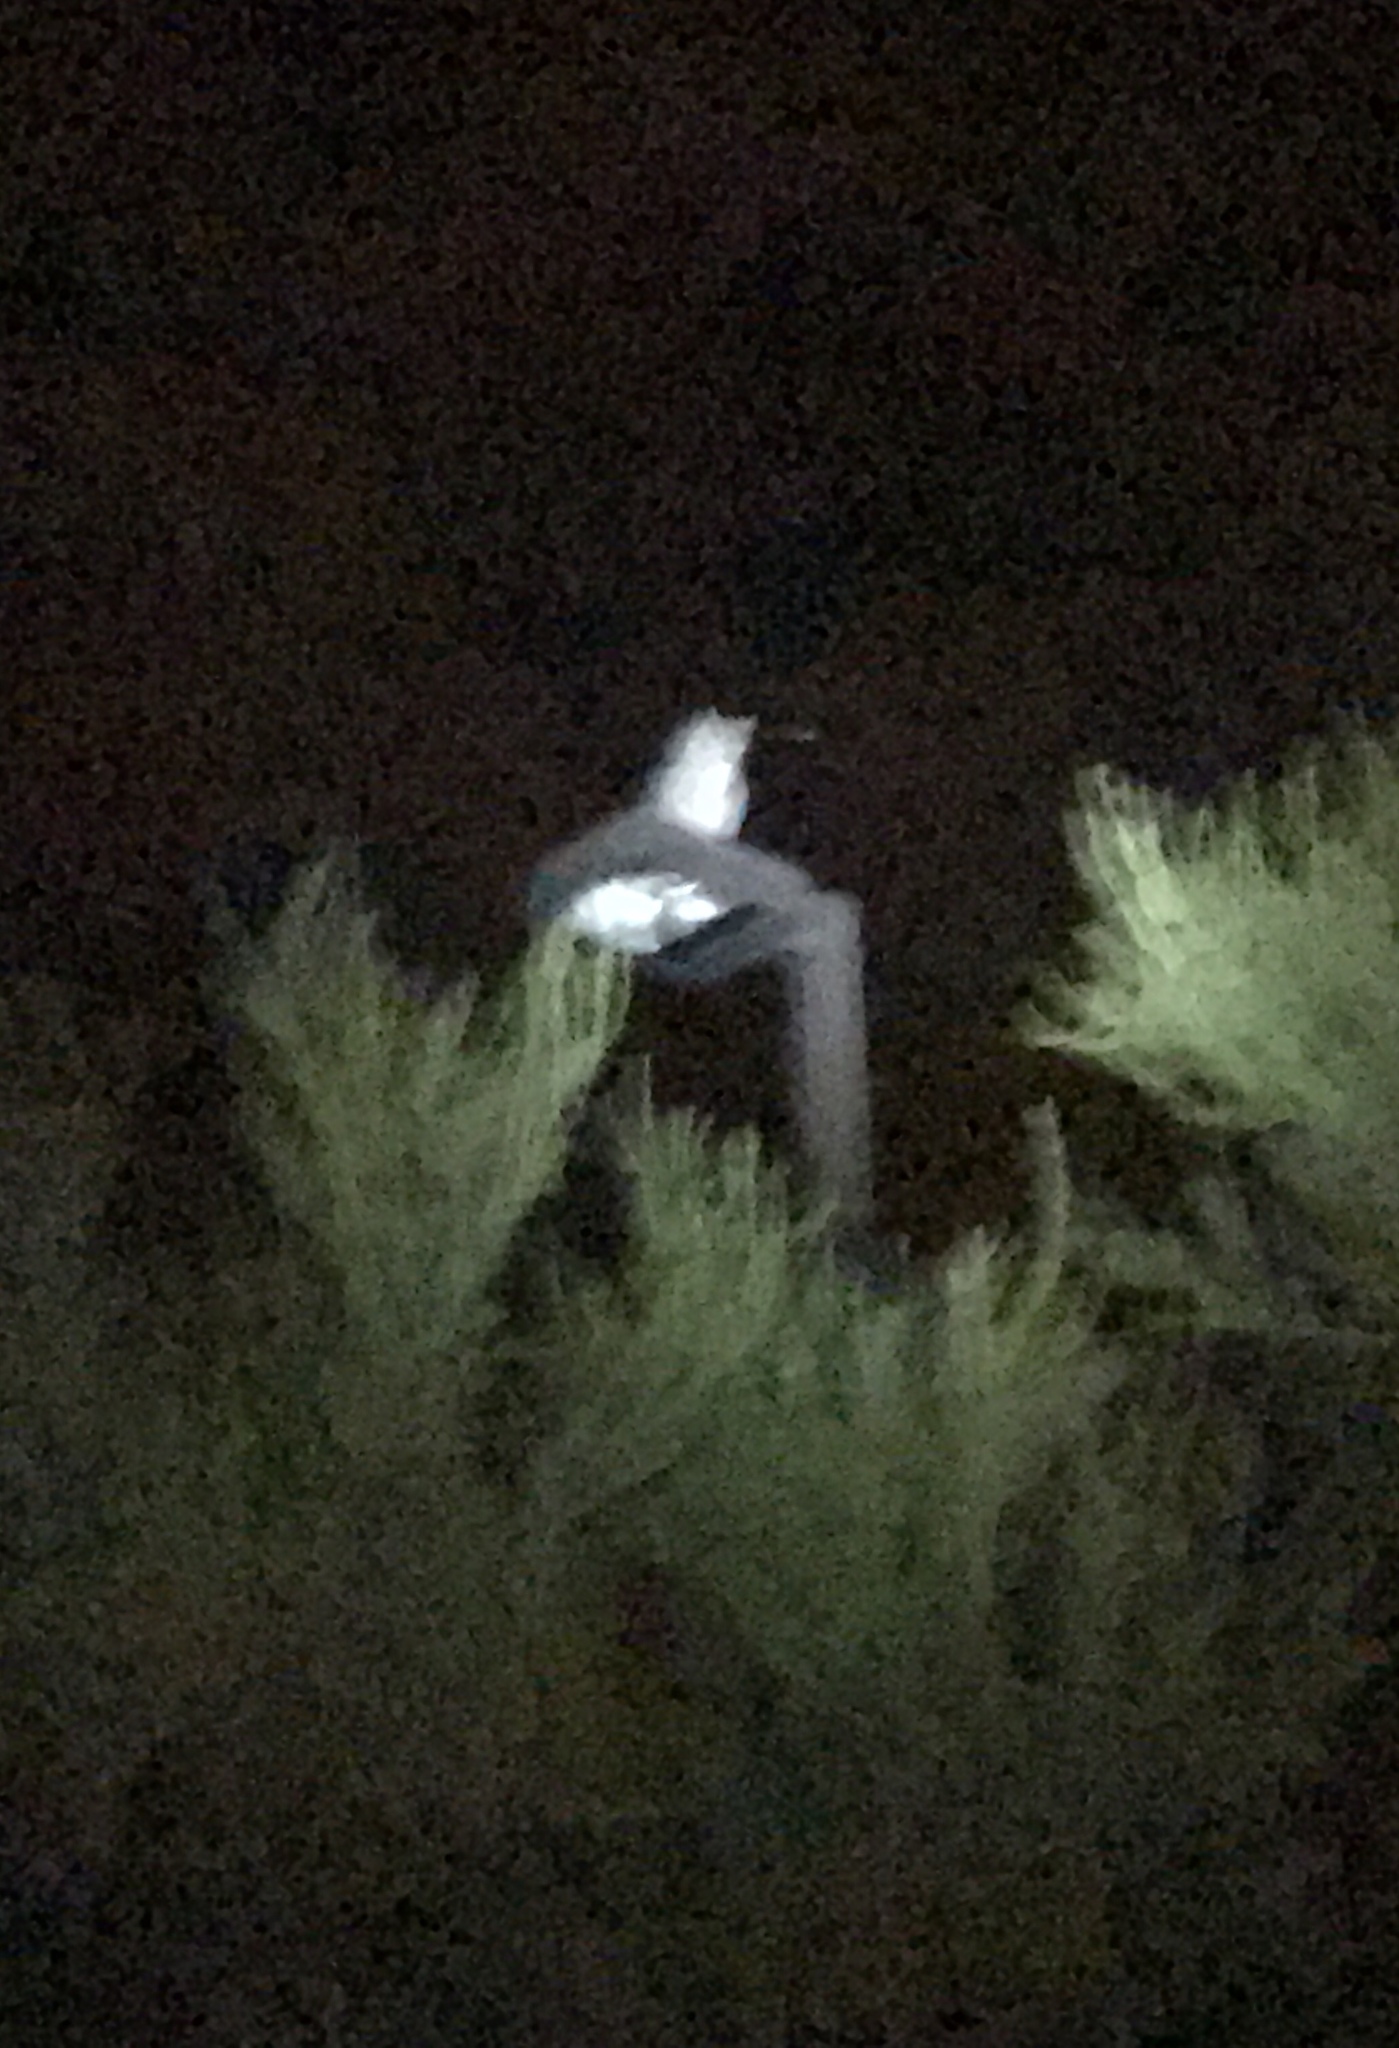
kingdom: Animalia
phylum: Chordata
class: Aves
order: Strigiformes
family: Strigidae
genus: Bubo
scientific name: Bubo virginianus
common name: Great horned owl
